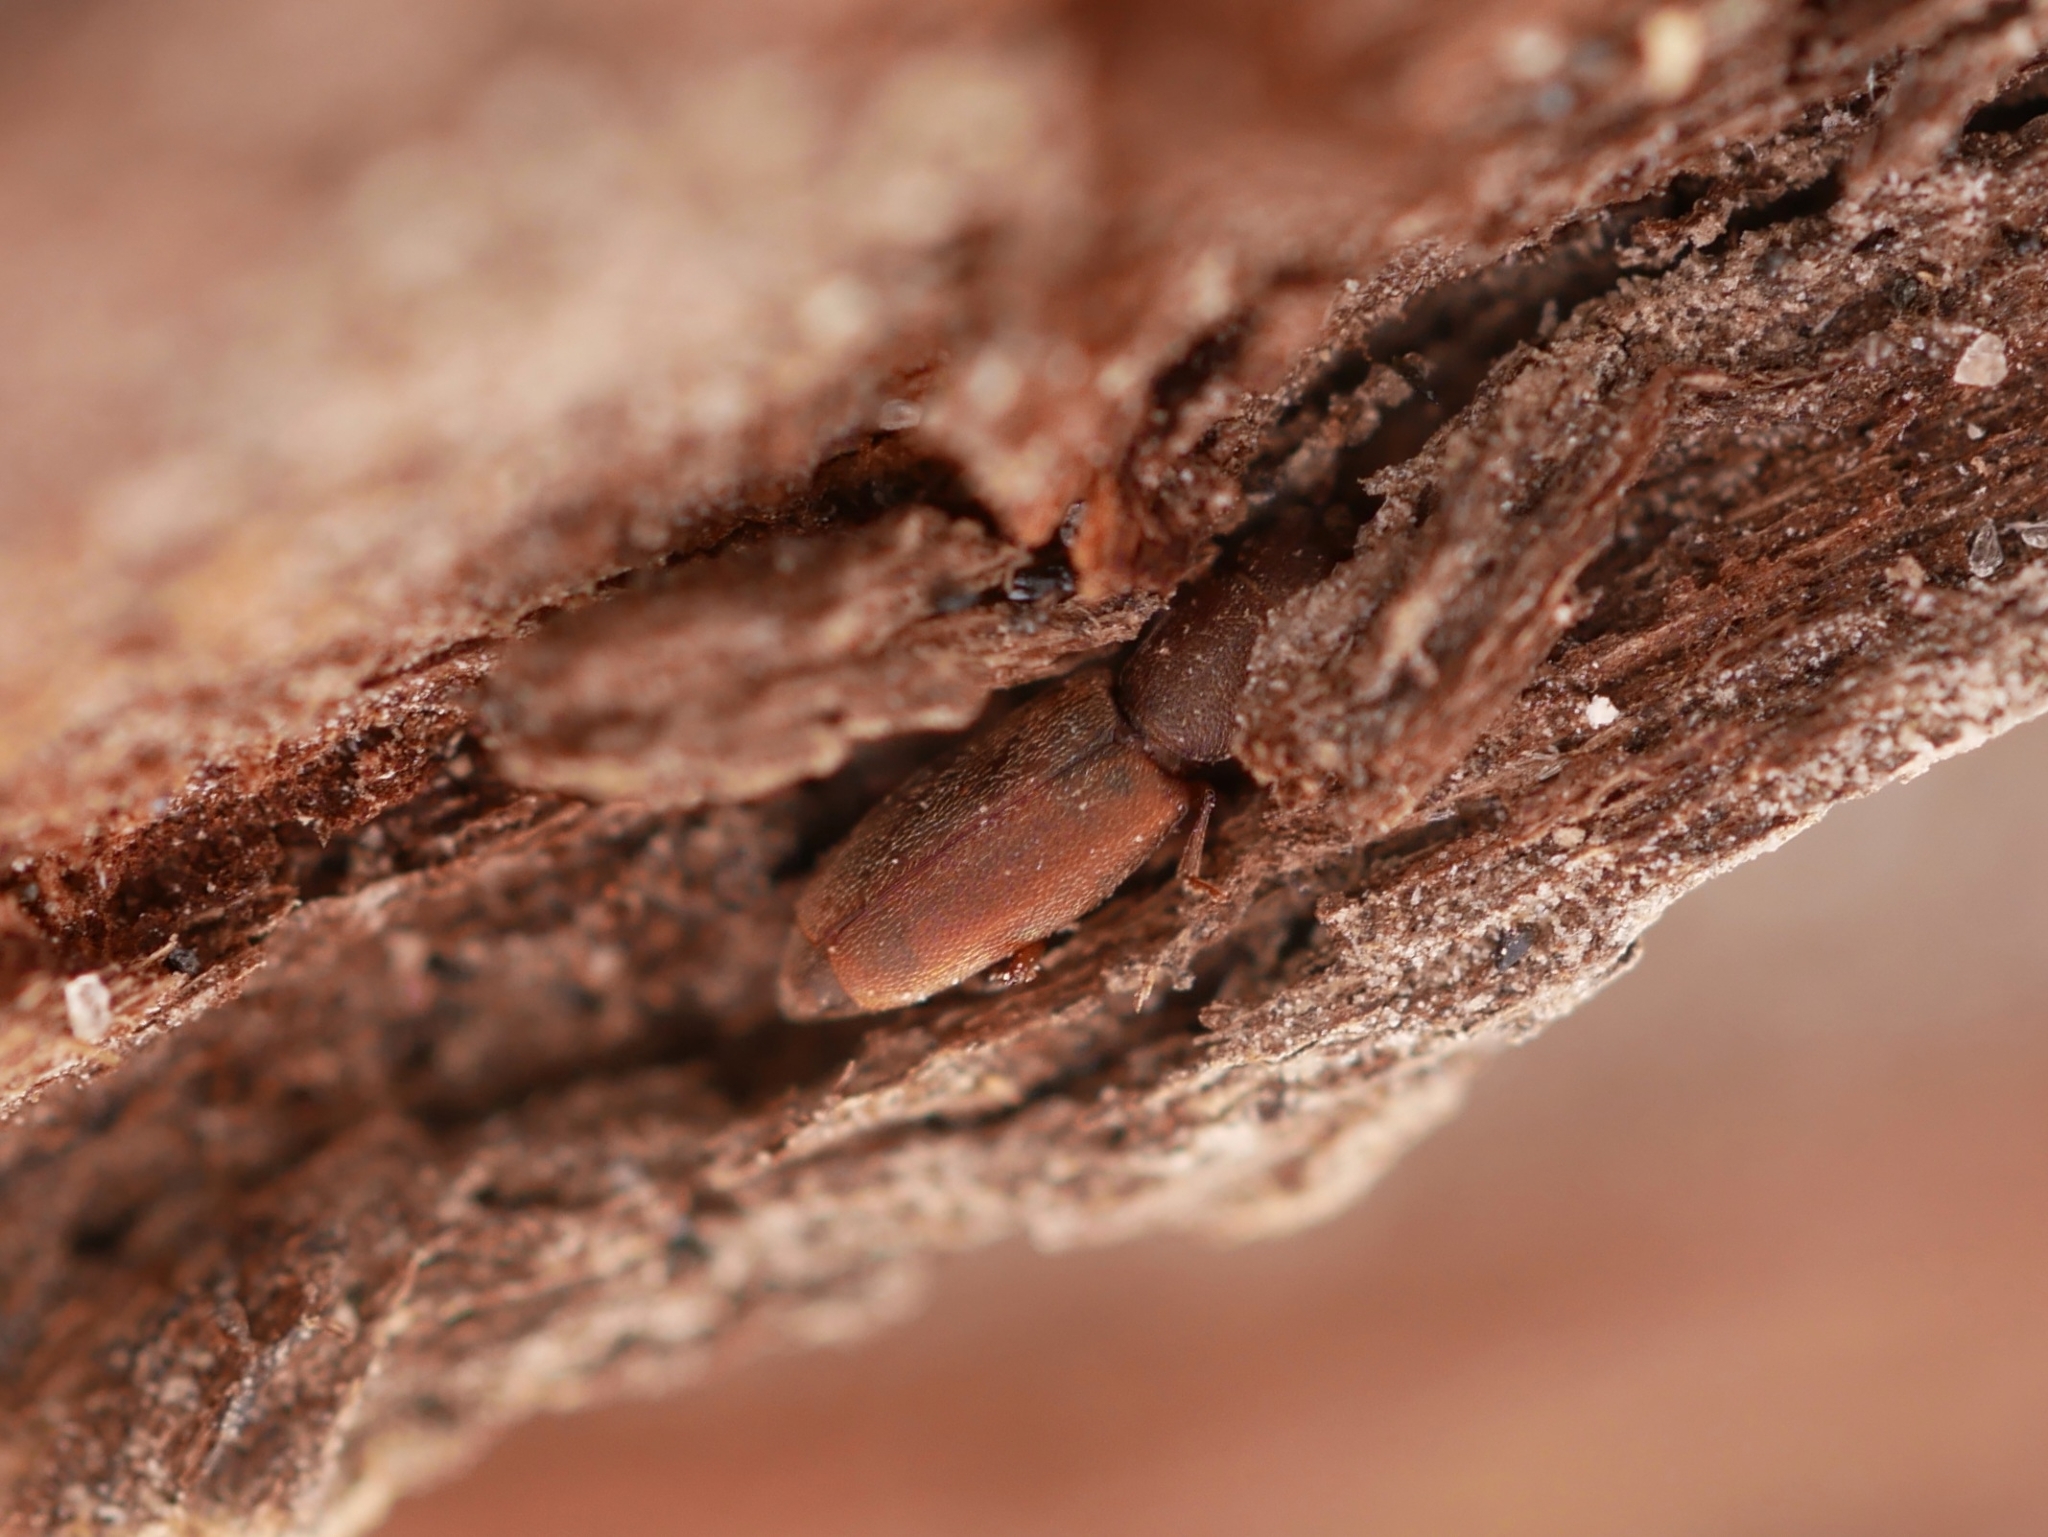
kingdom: Animalia
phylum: Arthropoda
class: Insecta
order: Coleoptera
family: Monotomidae
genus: Phyconomus
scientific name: Phyconomus marinus
